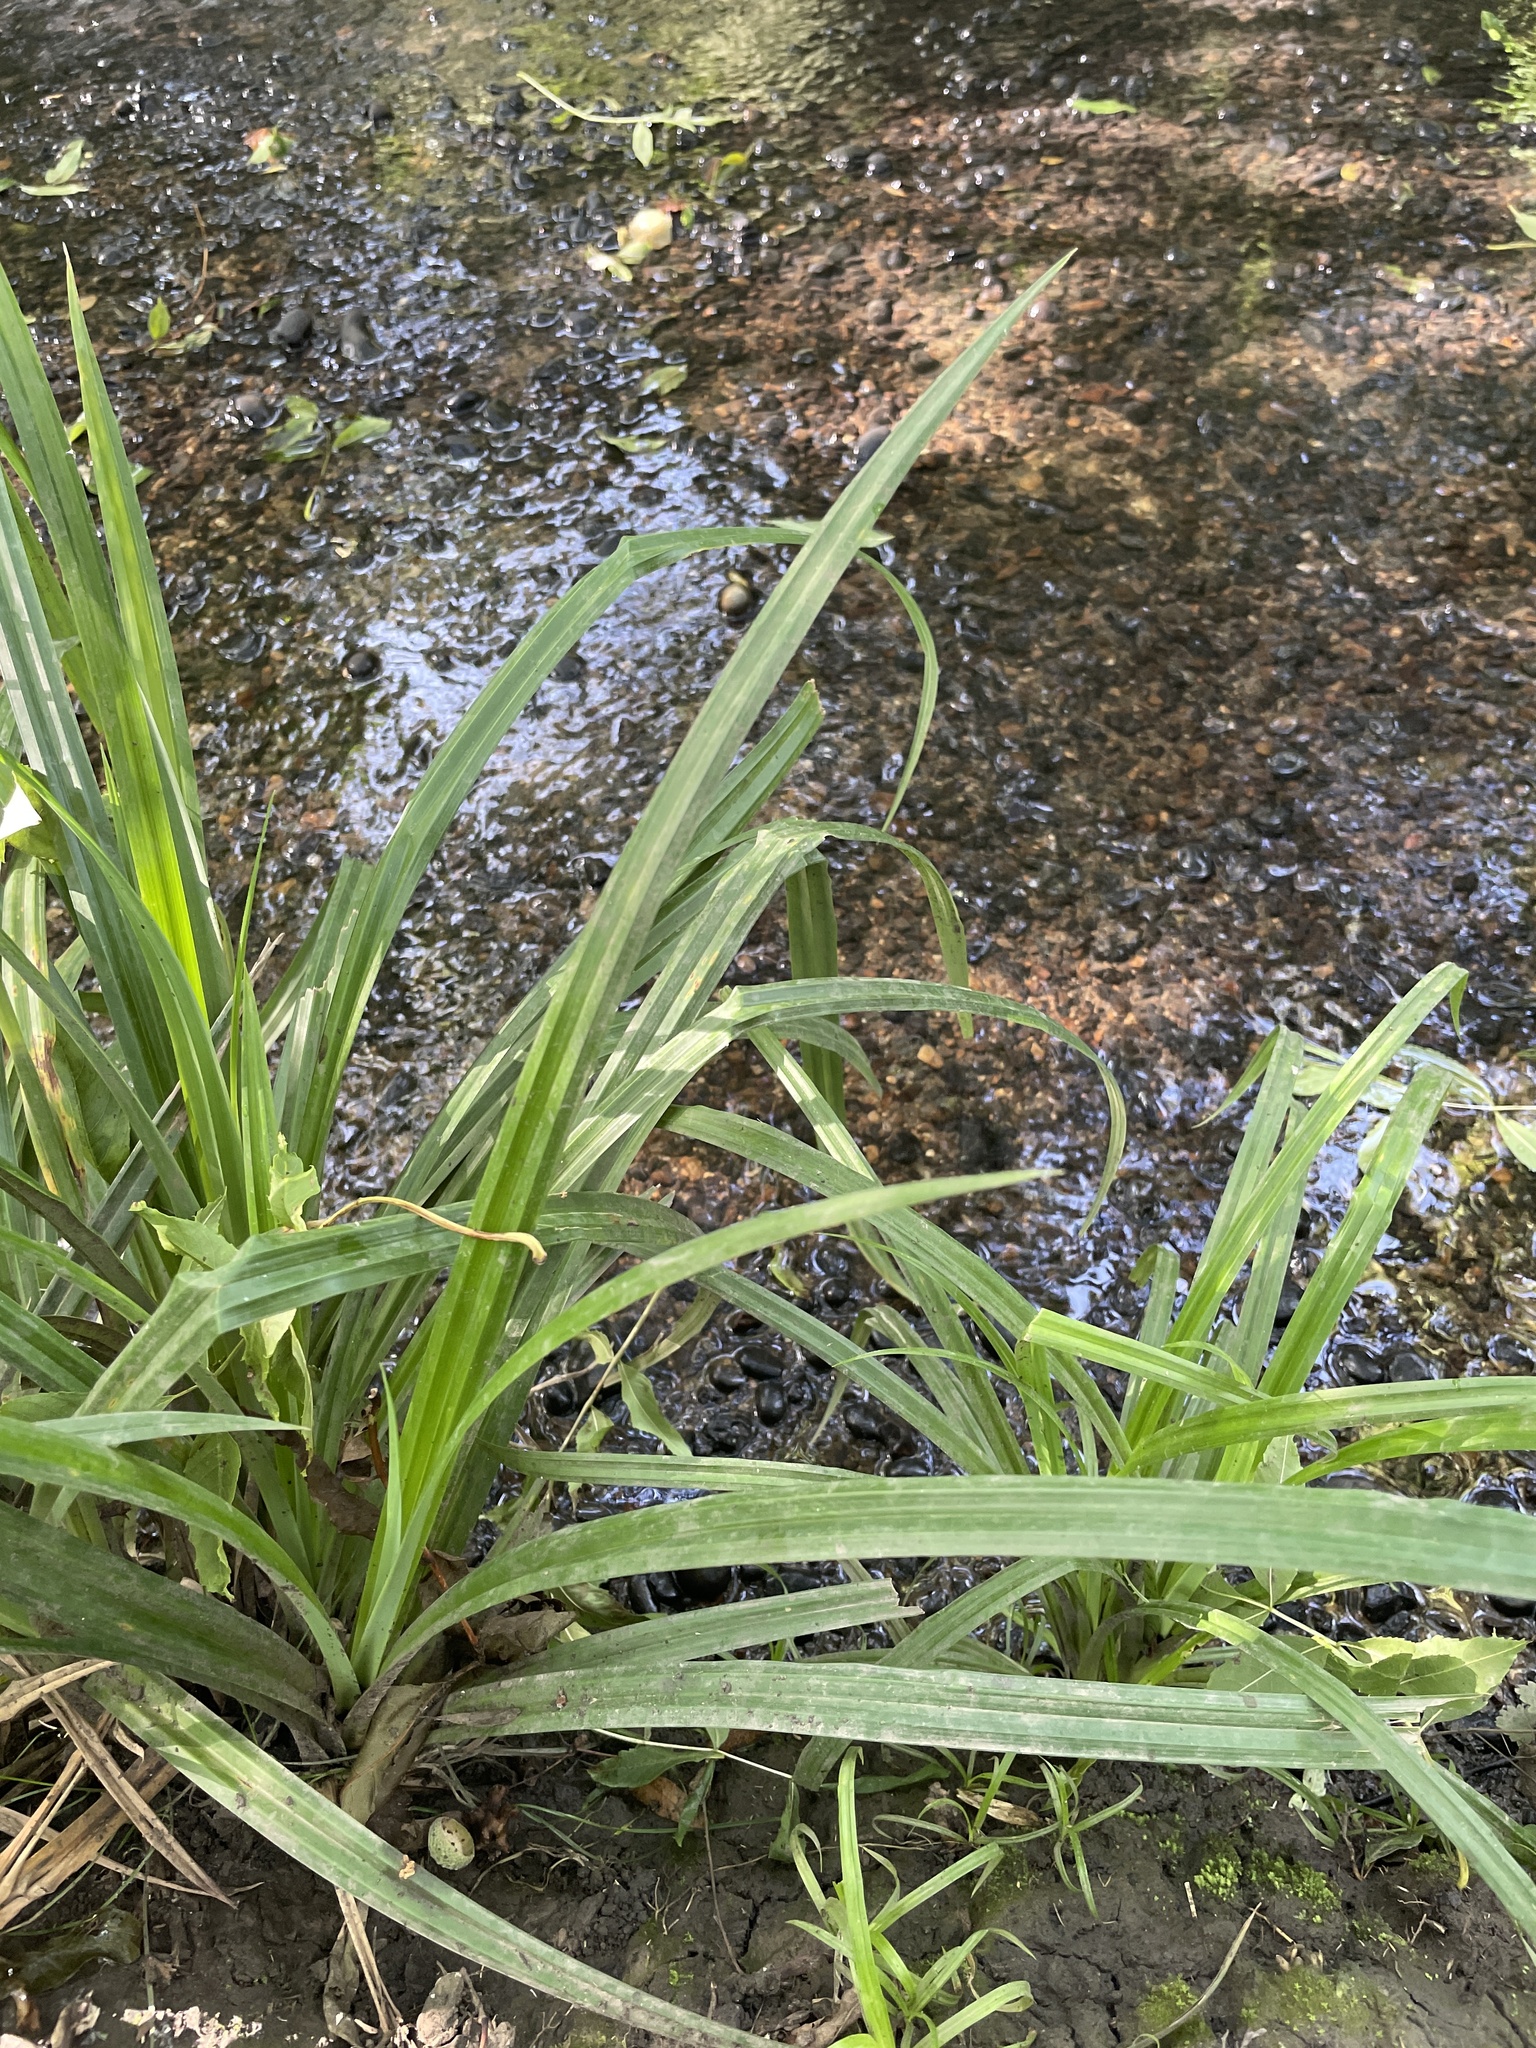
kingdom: Plantae
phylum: Tracheophyta
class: Liliopsida
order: Poales
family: Cyperaceae
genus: Carex
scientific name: Carex pendula
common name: Pendulous sedge
